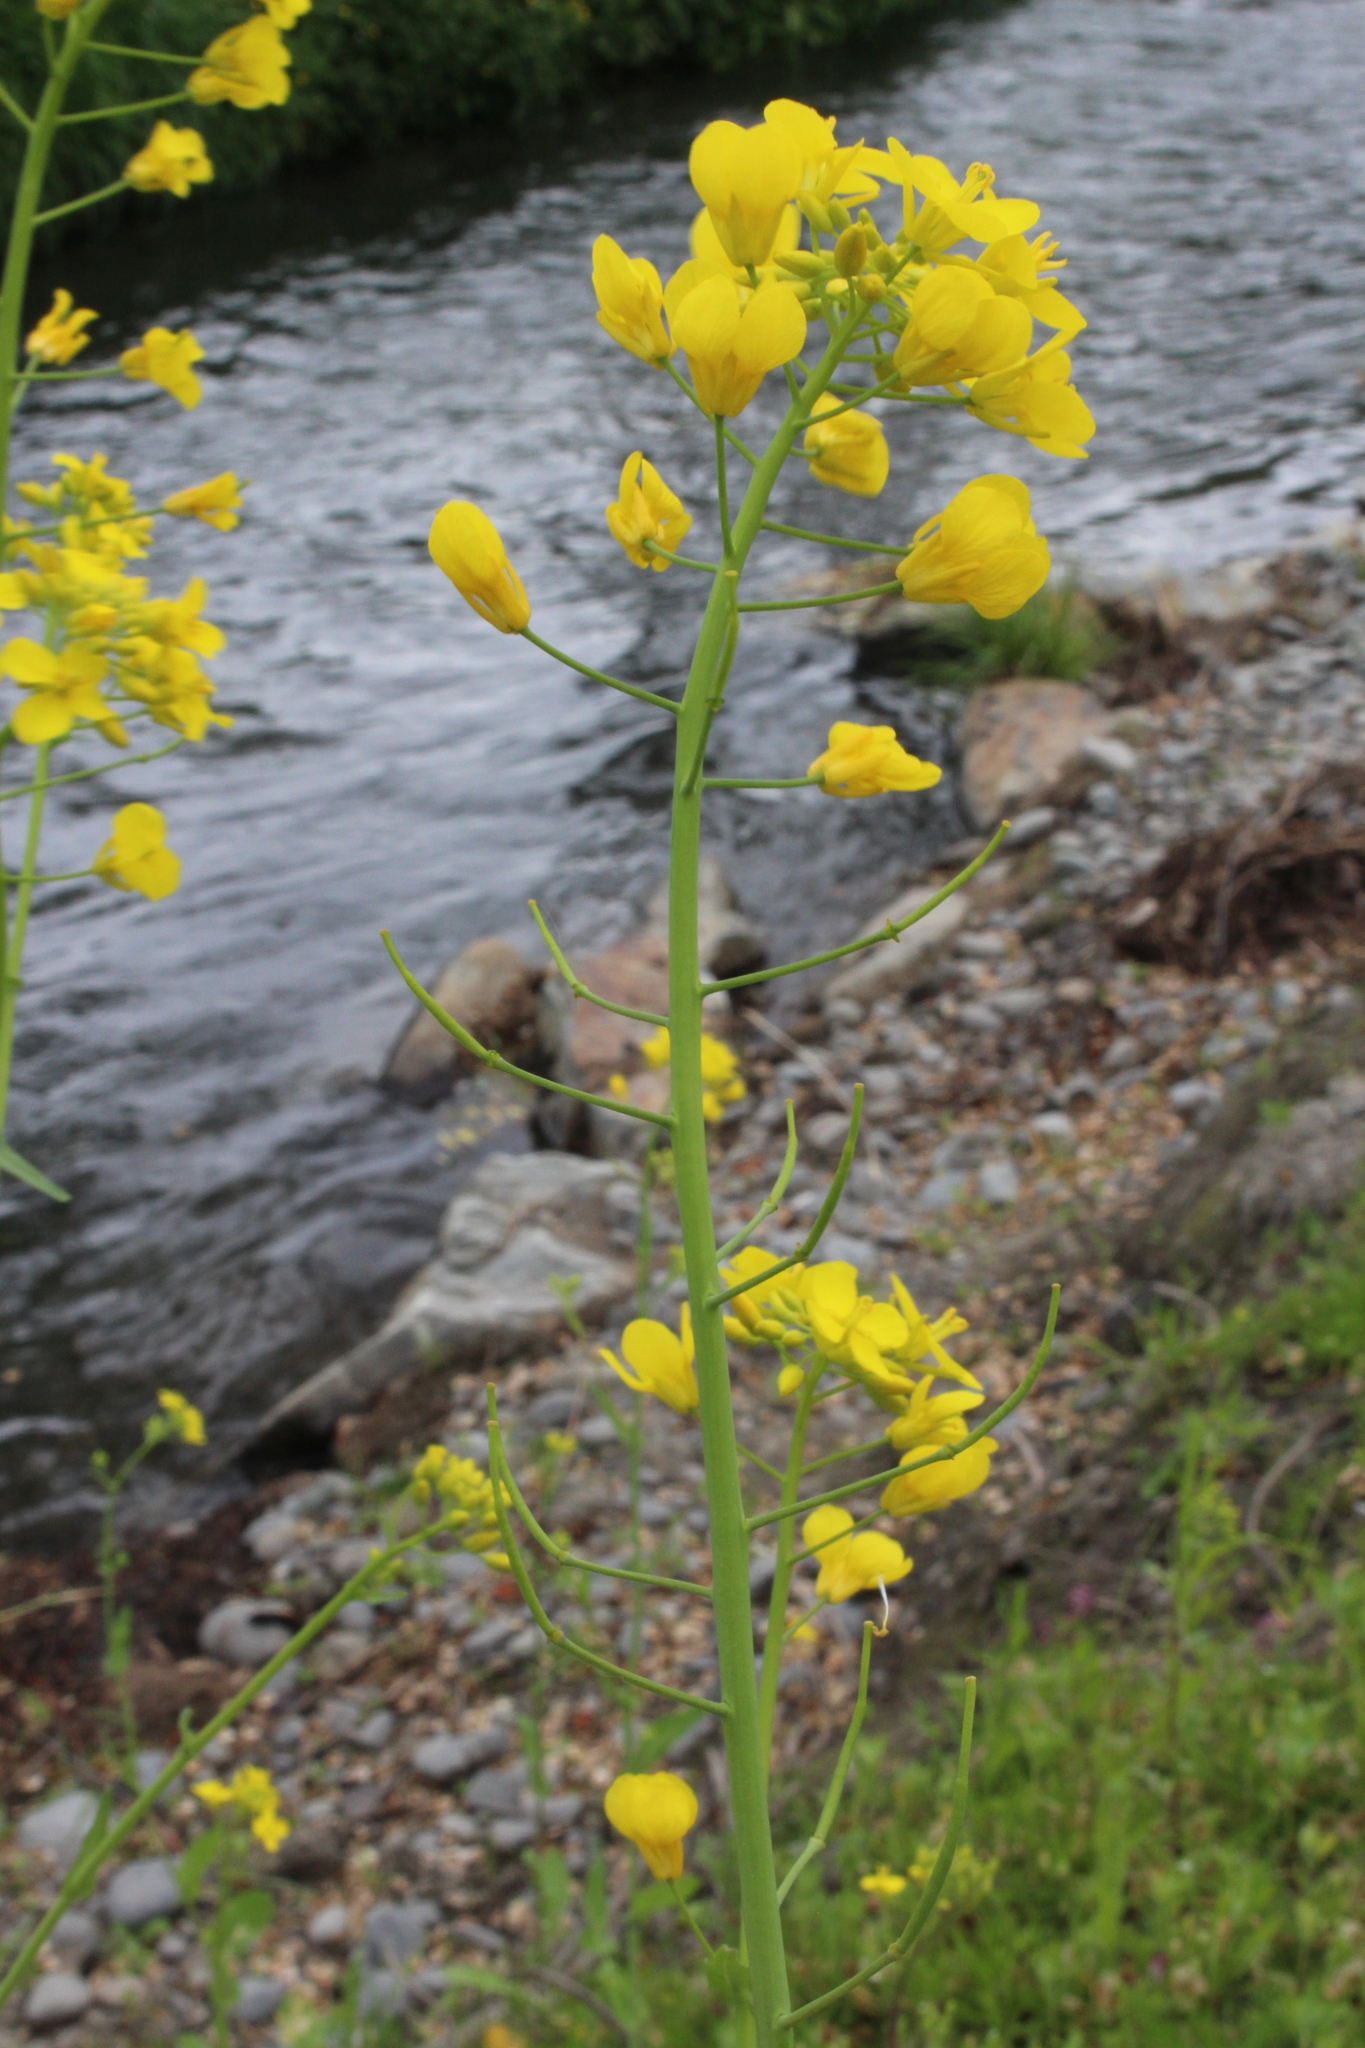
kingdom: Plantae
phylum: Tracheophyta
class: Magnoliopsida
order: Brassicales
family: Brassicaceae
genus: Brassica
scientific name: Brassica rapa
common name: Field mustard
